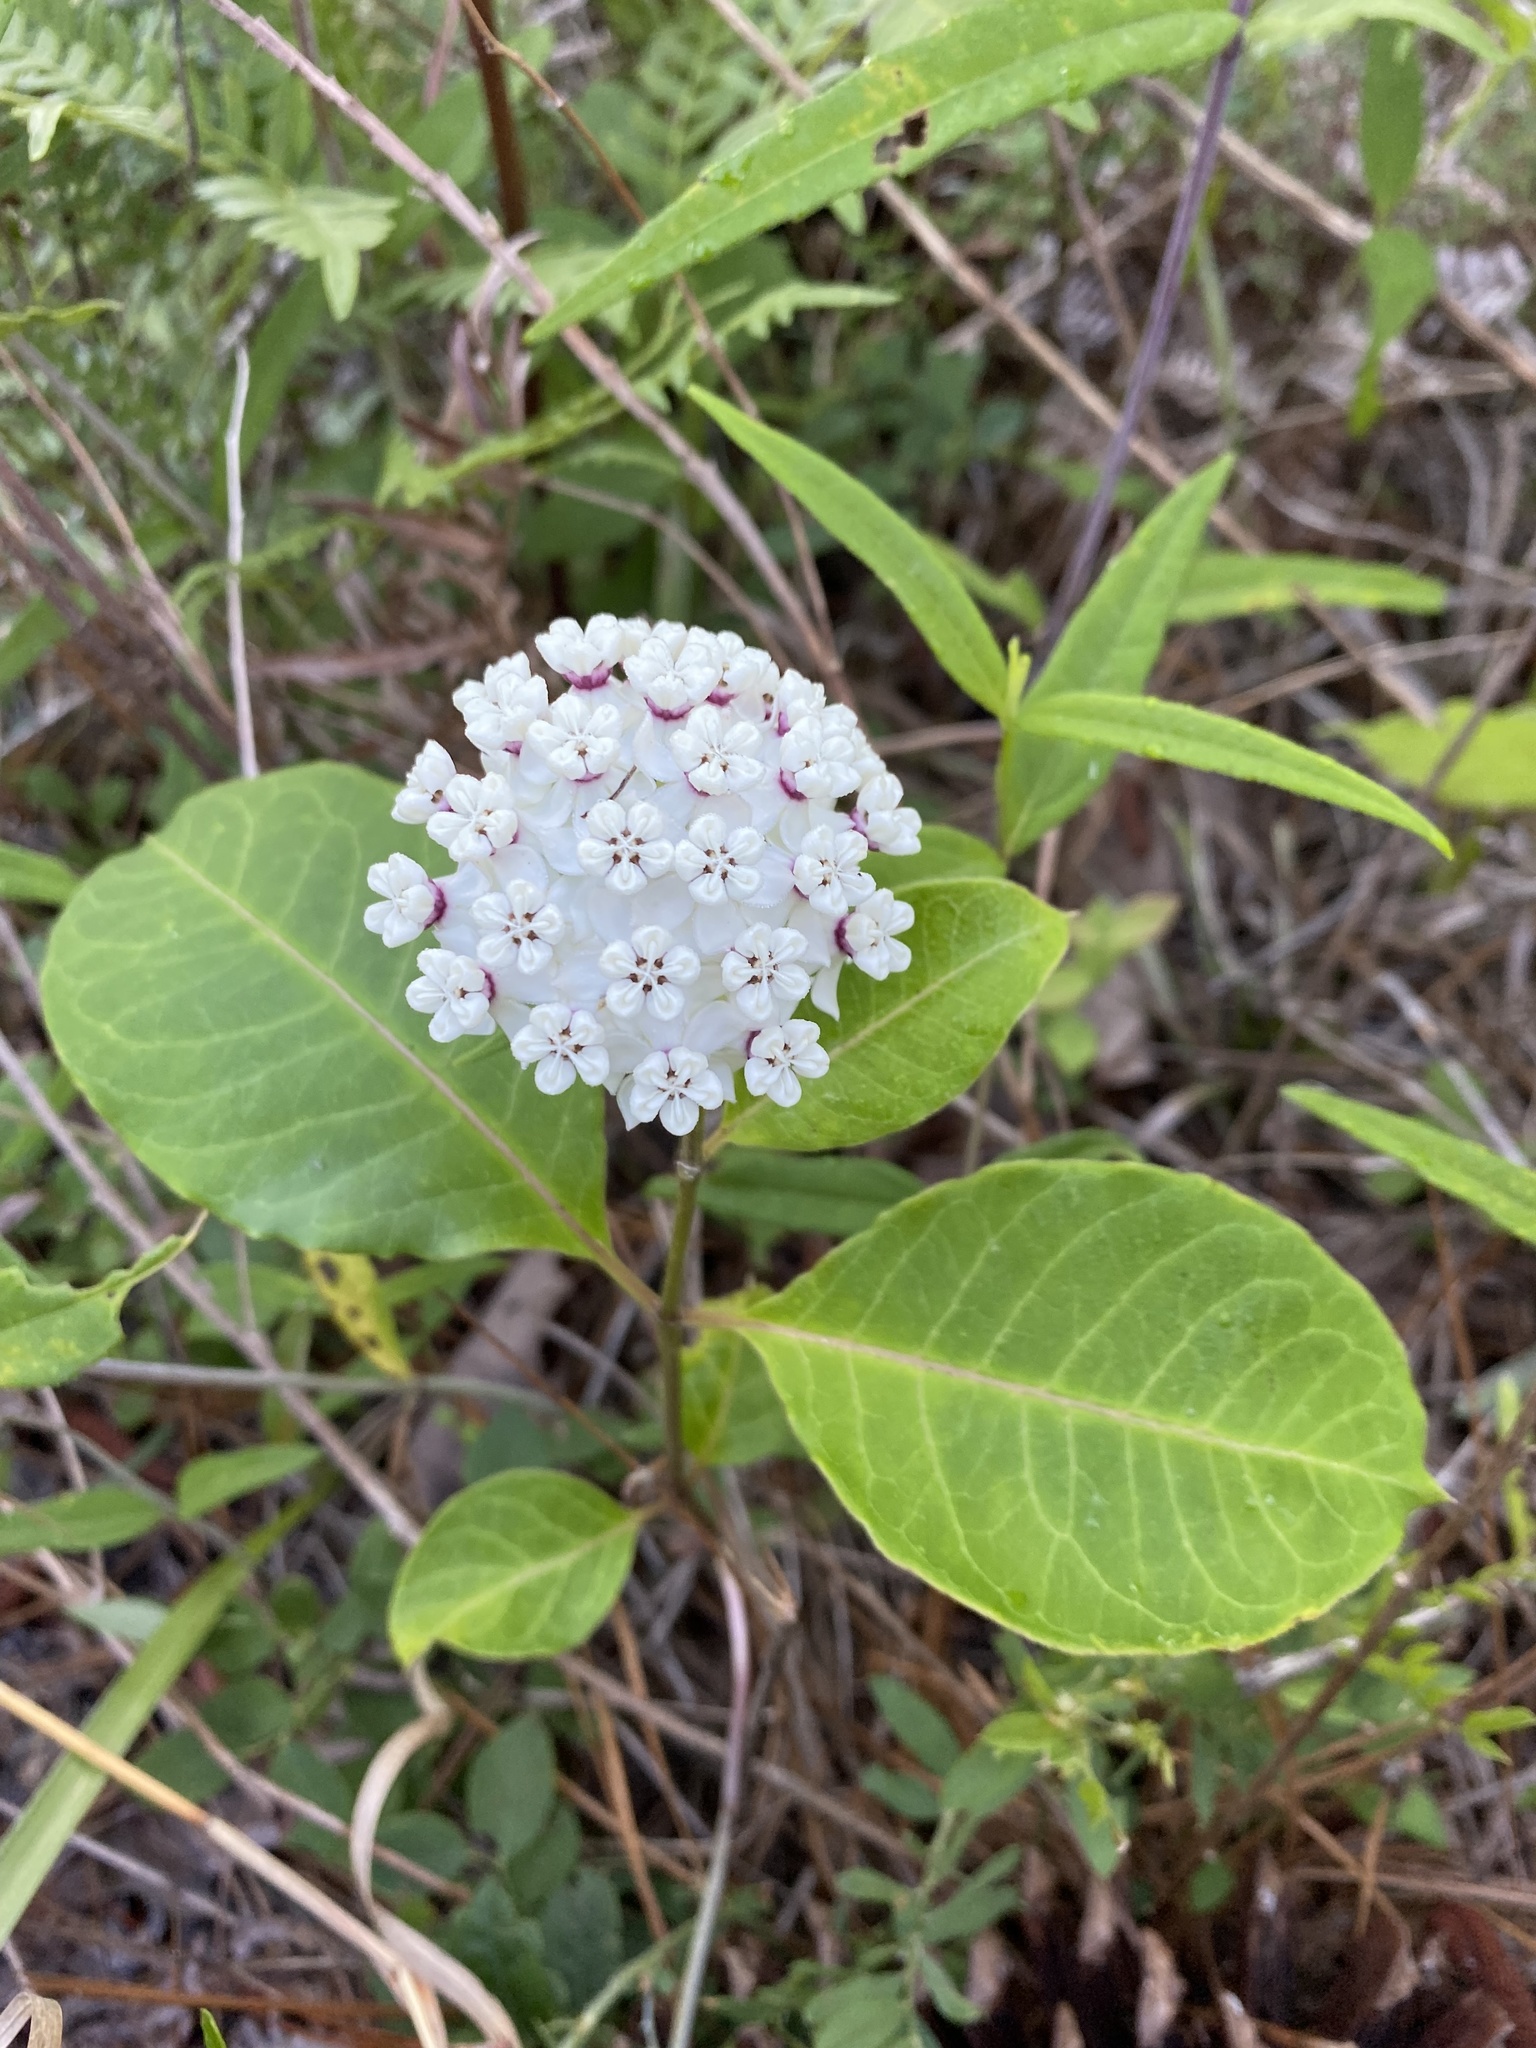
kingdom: Plantae
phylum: Tracheophyta
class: Magnoliopsida
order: Gentianales
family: Apocynaceae
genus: Asclepias
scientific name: Asclepias variegata
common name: Variegated milkweed
